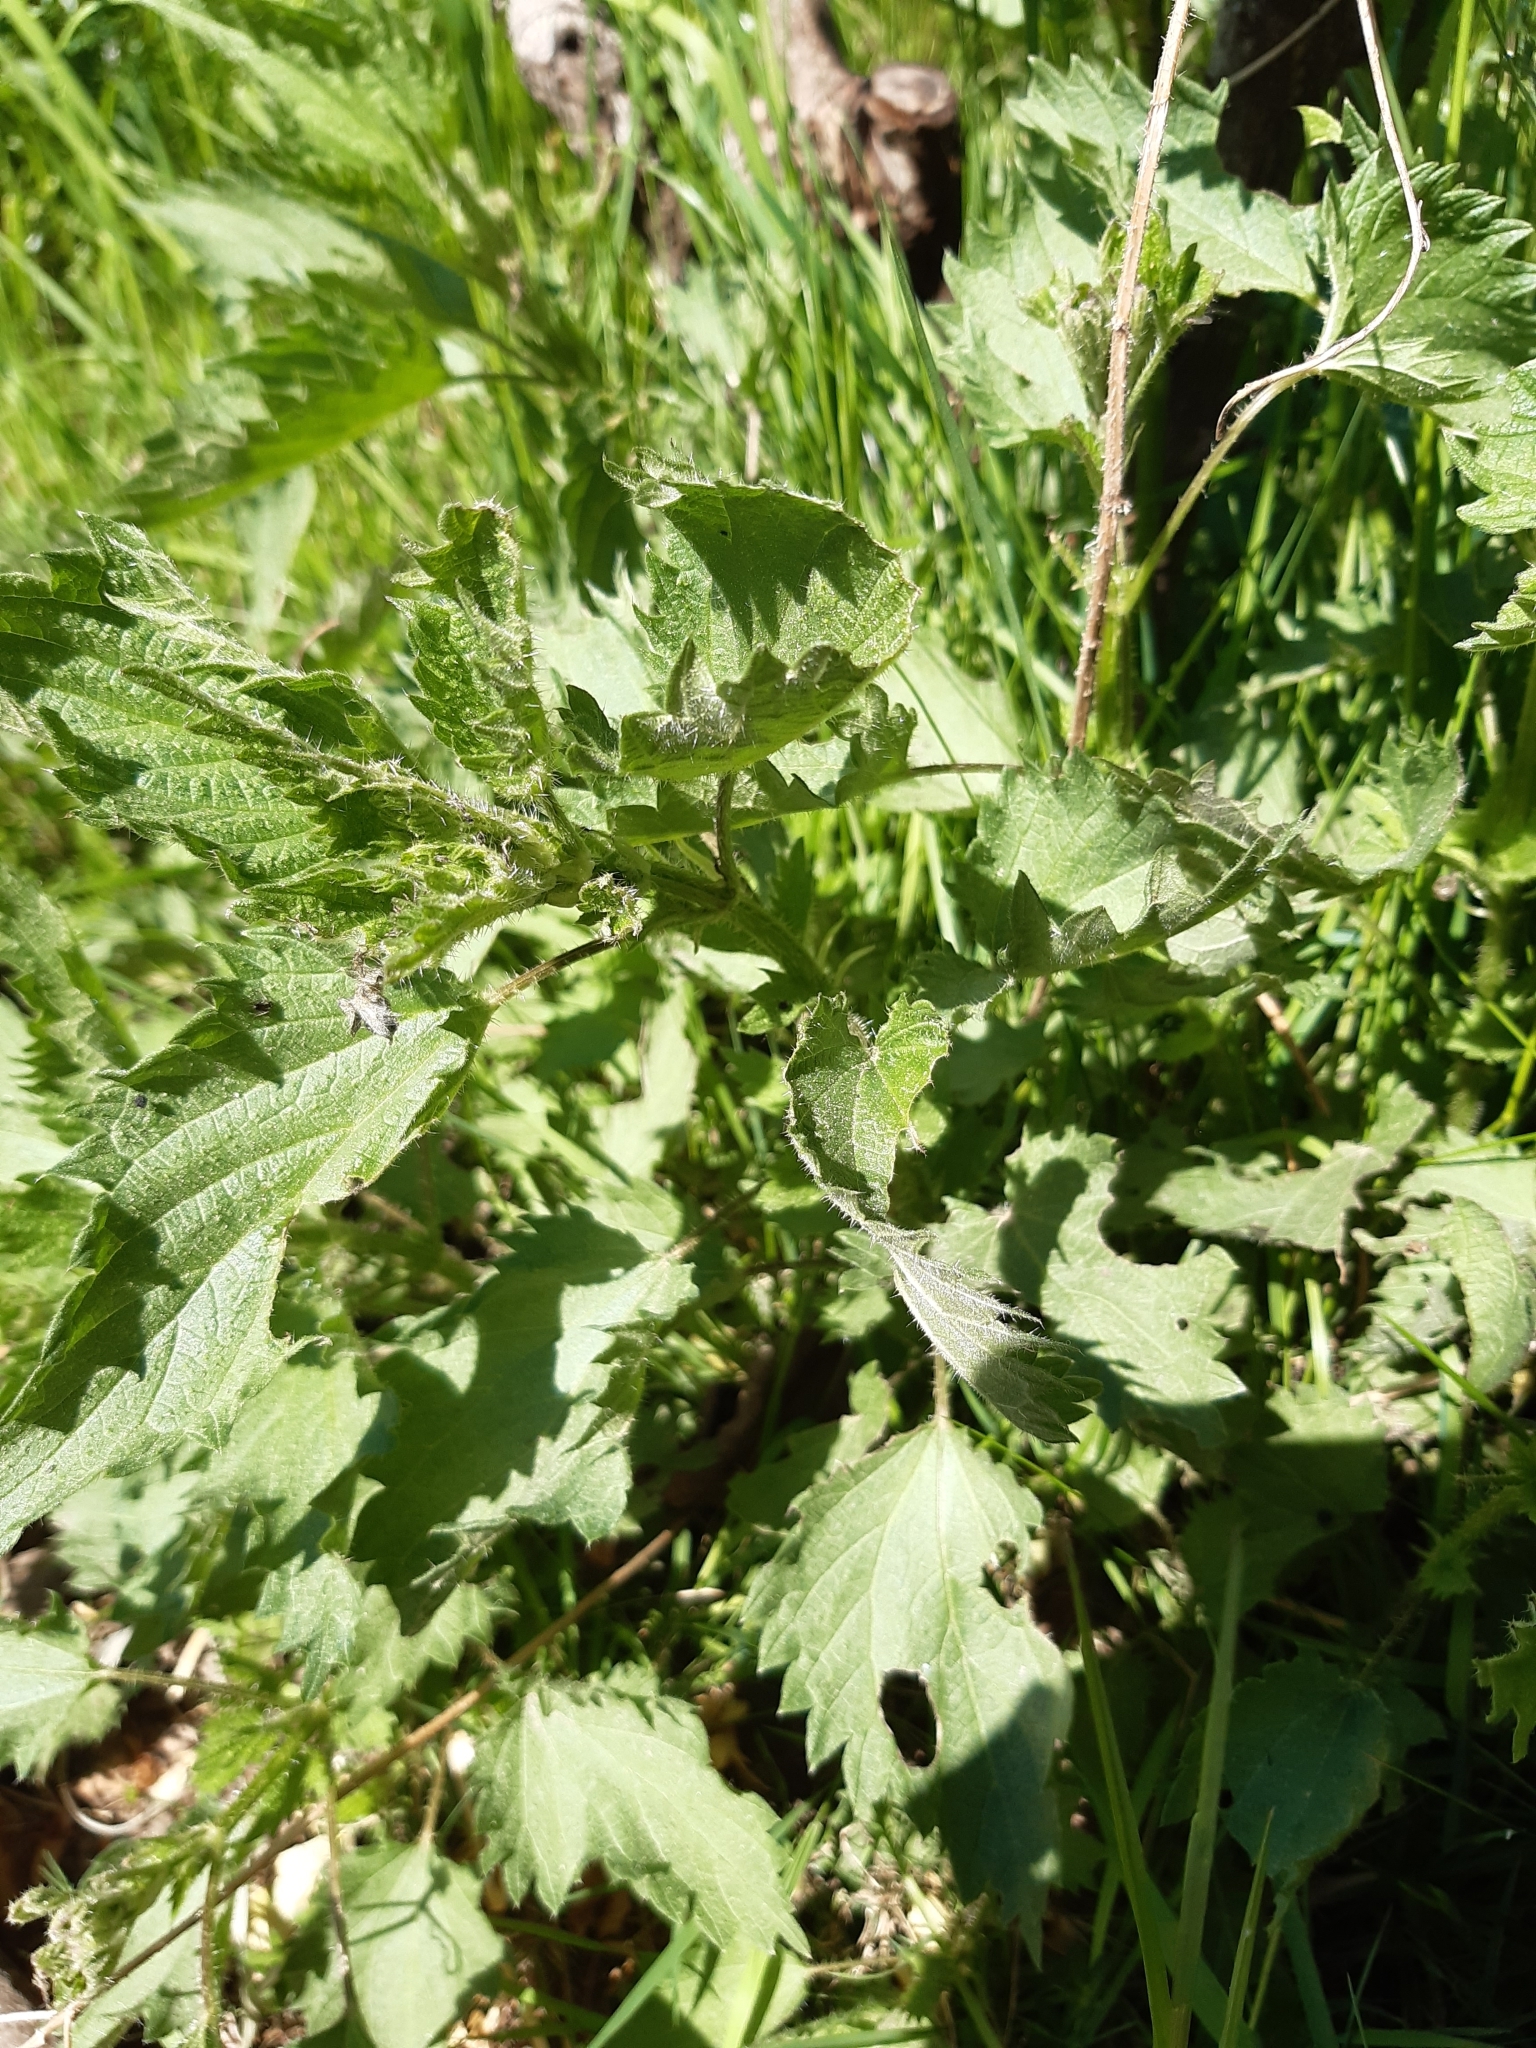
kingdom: Plantae
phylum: Tracheophyta
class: Magnoliopsida
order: Rosales
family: Urticaceae
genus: Urtica
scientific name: Urtica dioica
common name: Common nettle
